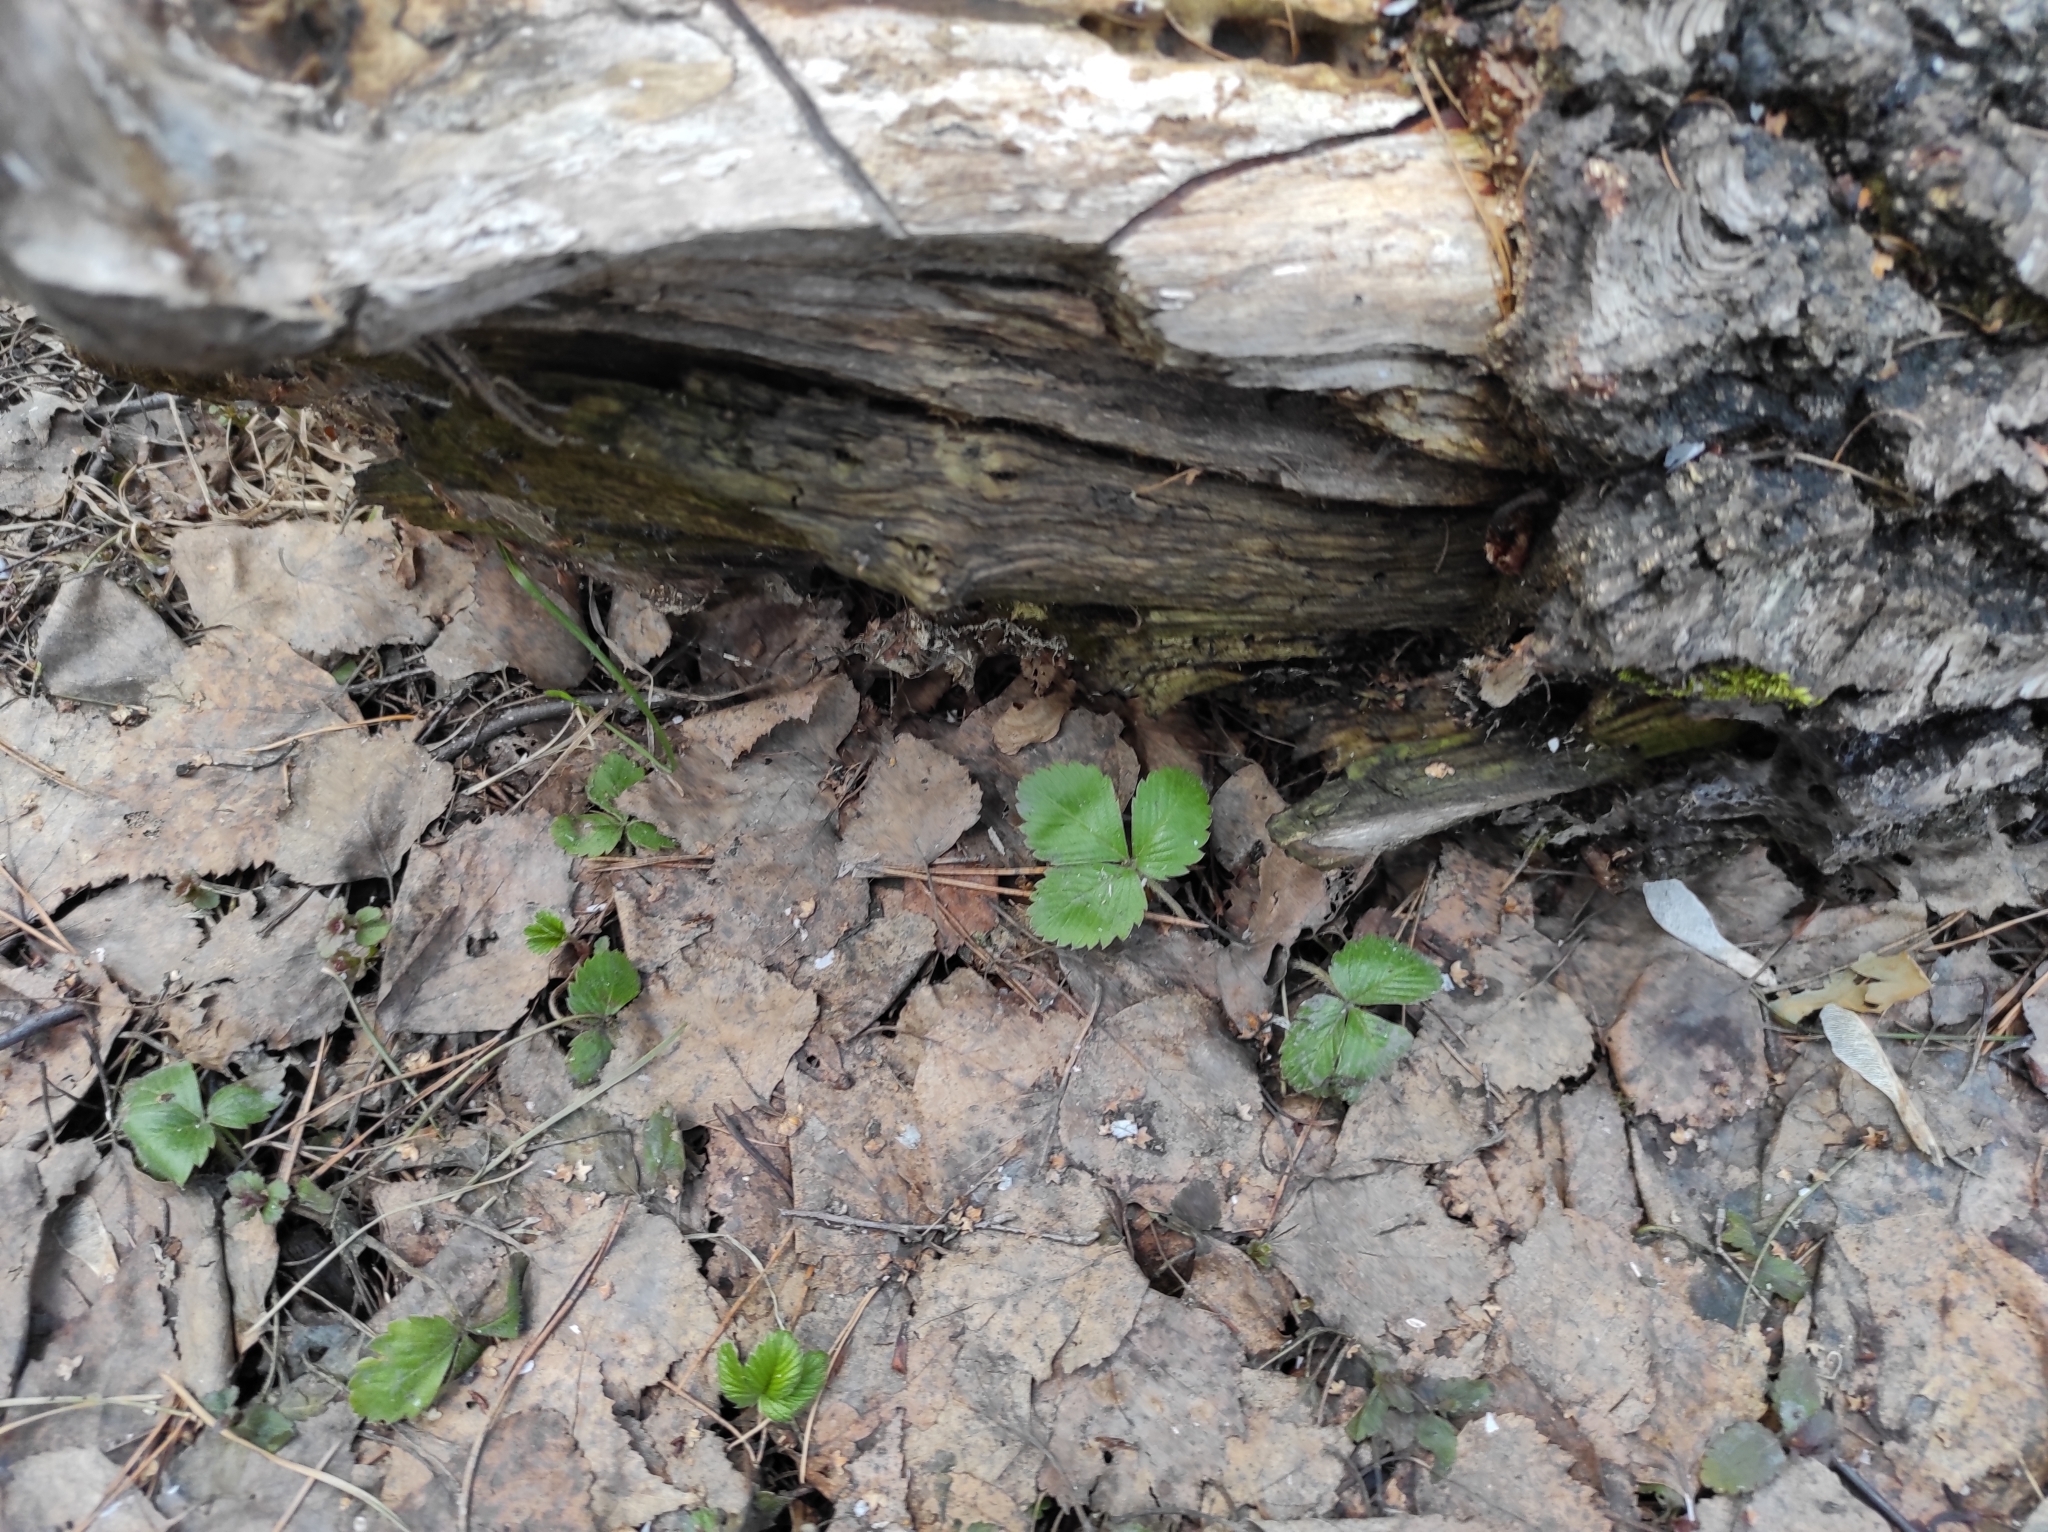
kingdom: Plantae
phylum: Tracheophyta
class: Magnoliopsida
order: Rosales
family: Rosaceae
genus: Fragaria
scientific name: Fragaria vesca
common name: Wild strawberry
